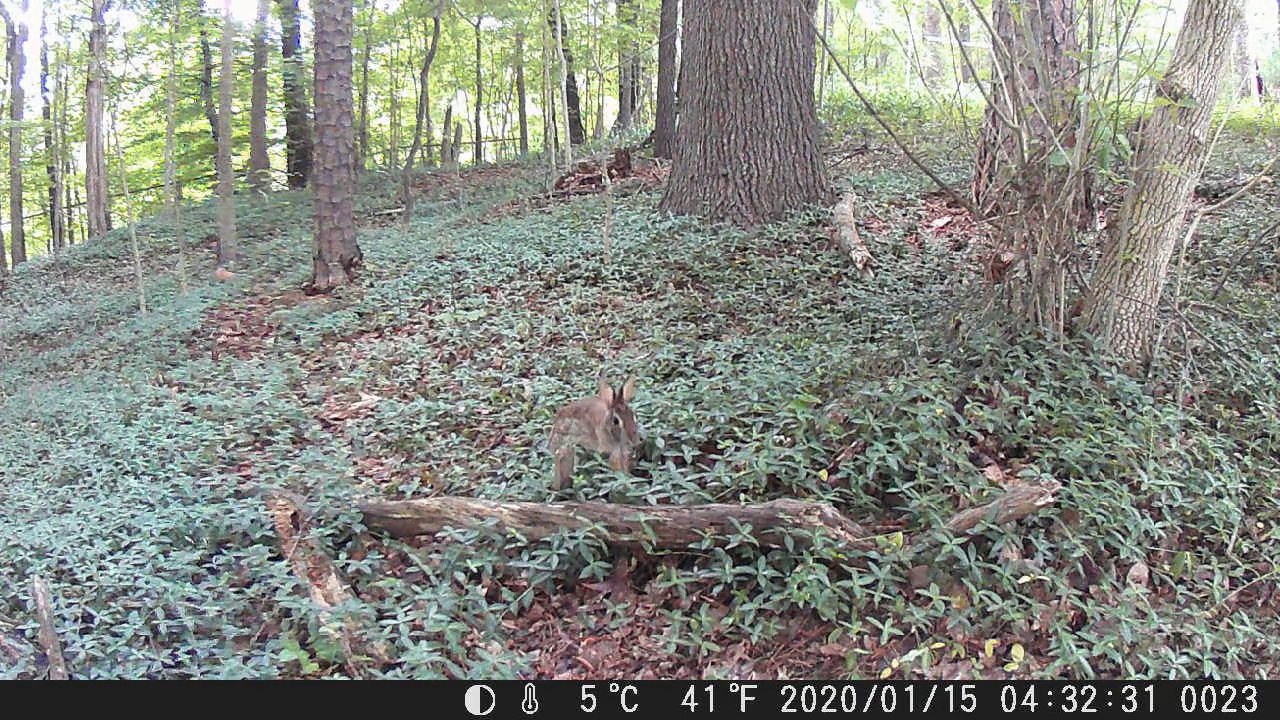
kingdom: Animalia
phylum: Chordata
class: Mammalia
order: Lagomorpha
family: Leporidae
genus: Sylvilagus
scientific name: Sylvilagus floridanus
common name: Eastern cottontail
